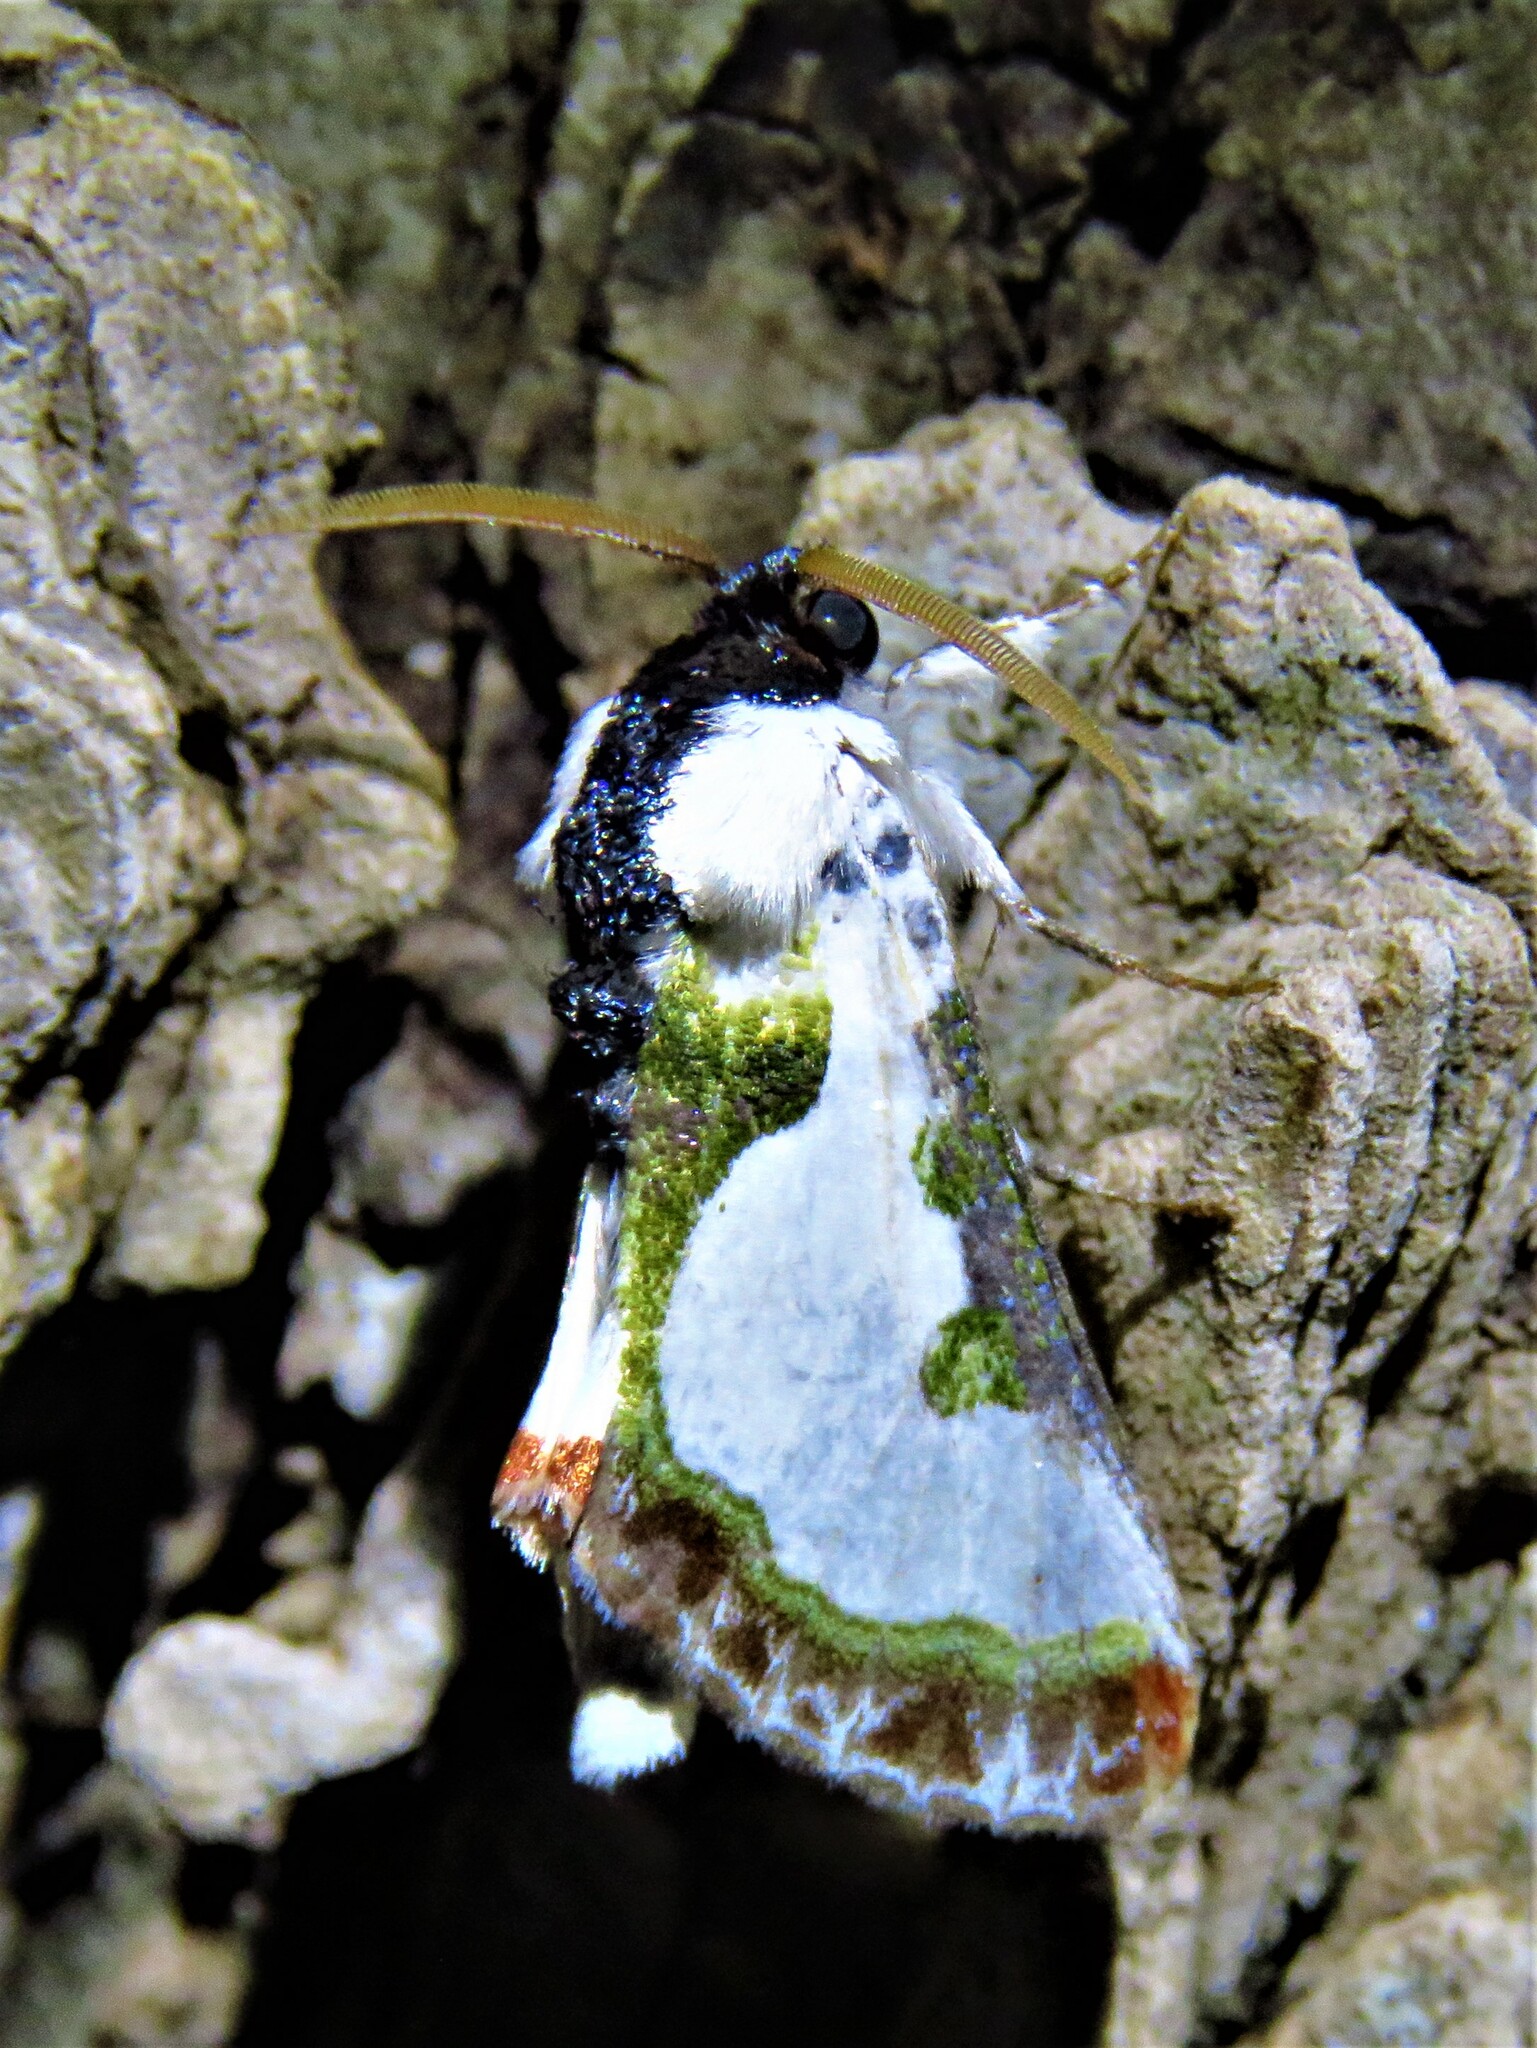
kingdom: Animalia
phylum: Arthropoda
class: Insecta
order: Lepidoptera
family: Noctuidae
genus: Xerociris
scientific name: Xerociris wilsonii
